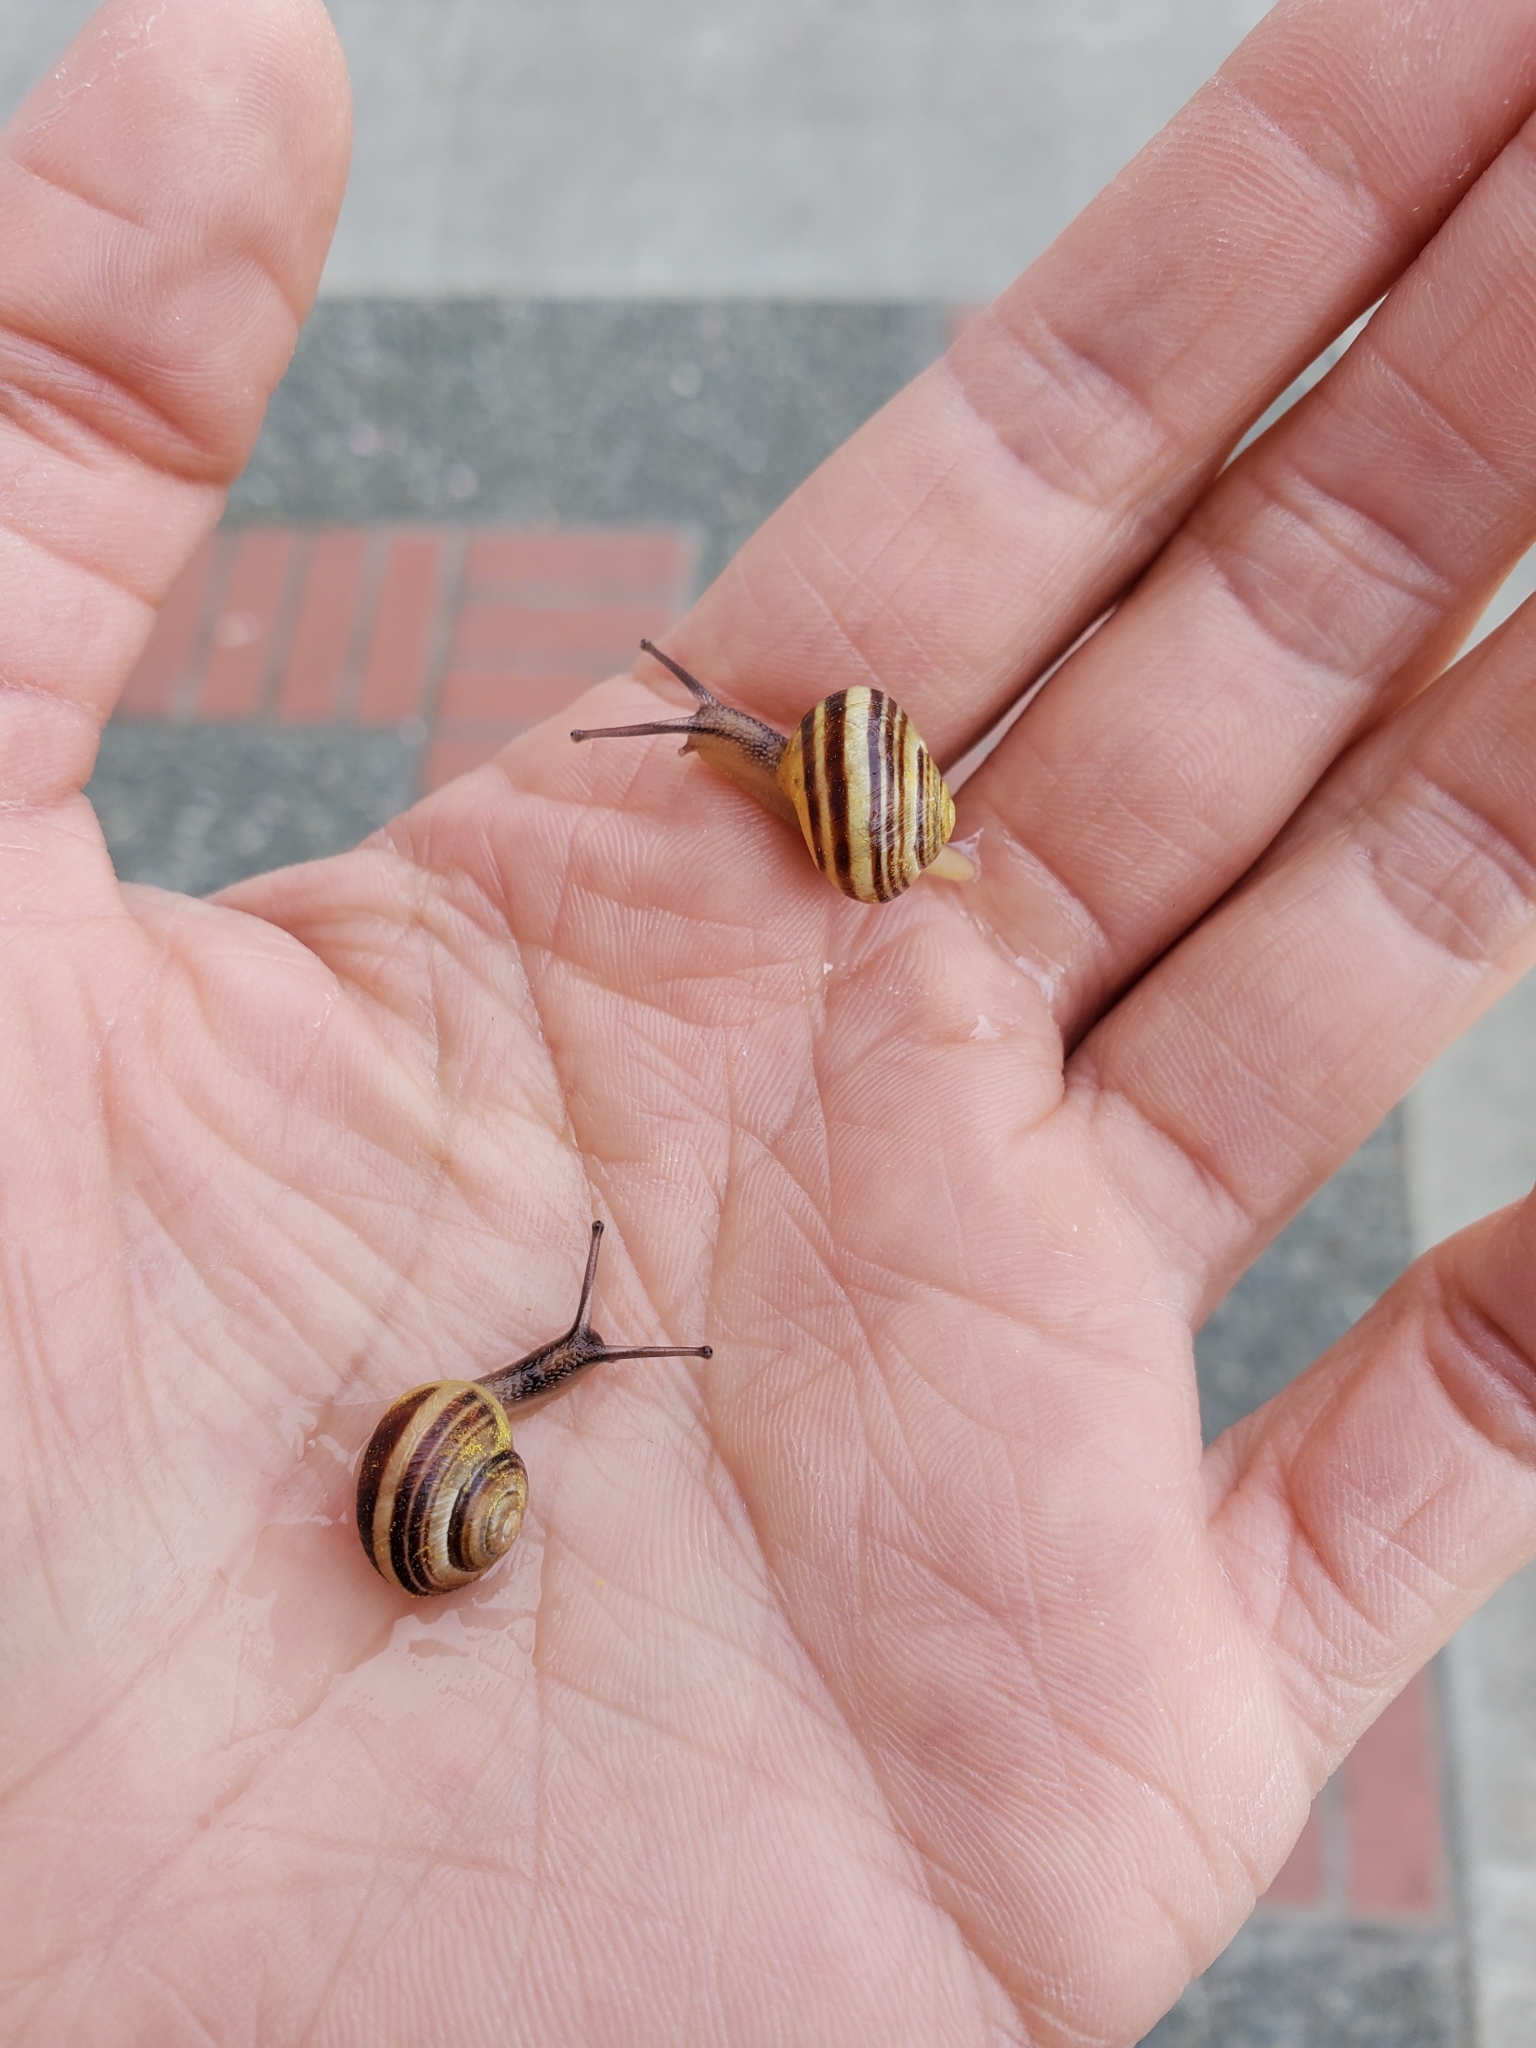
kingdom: Animalia
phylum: Mollusca
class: Gastropoda
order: Stylommatophora
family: Helicidae
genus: Cepaea
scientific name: Cepaea nemoralis
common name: Grovesnail
